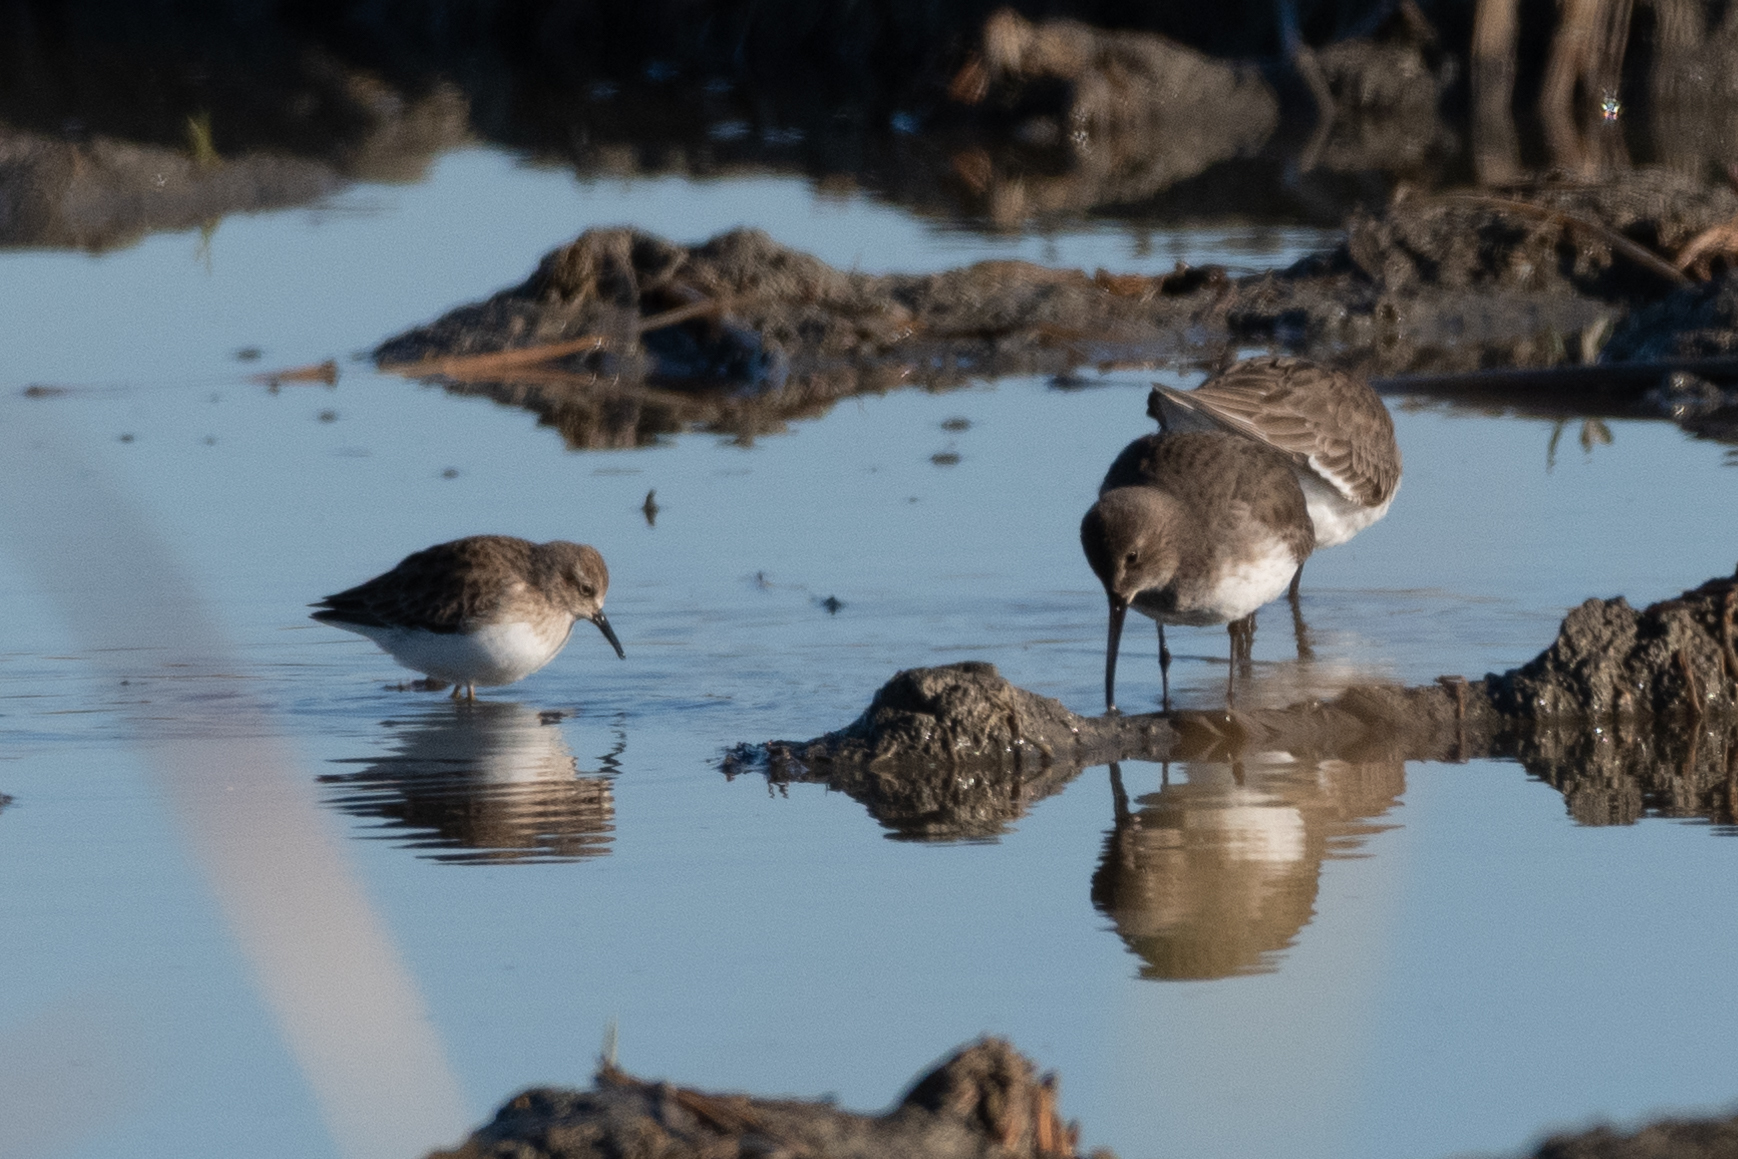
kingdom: Animalia
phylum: Chordata
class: Aves
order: Charadriiformes
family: Scolopacidae
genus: Calidris
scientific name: Calidris alpina
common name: Dunlin
